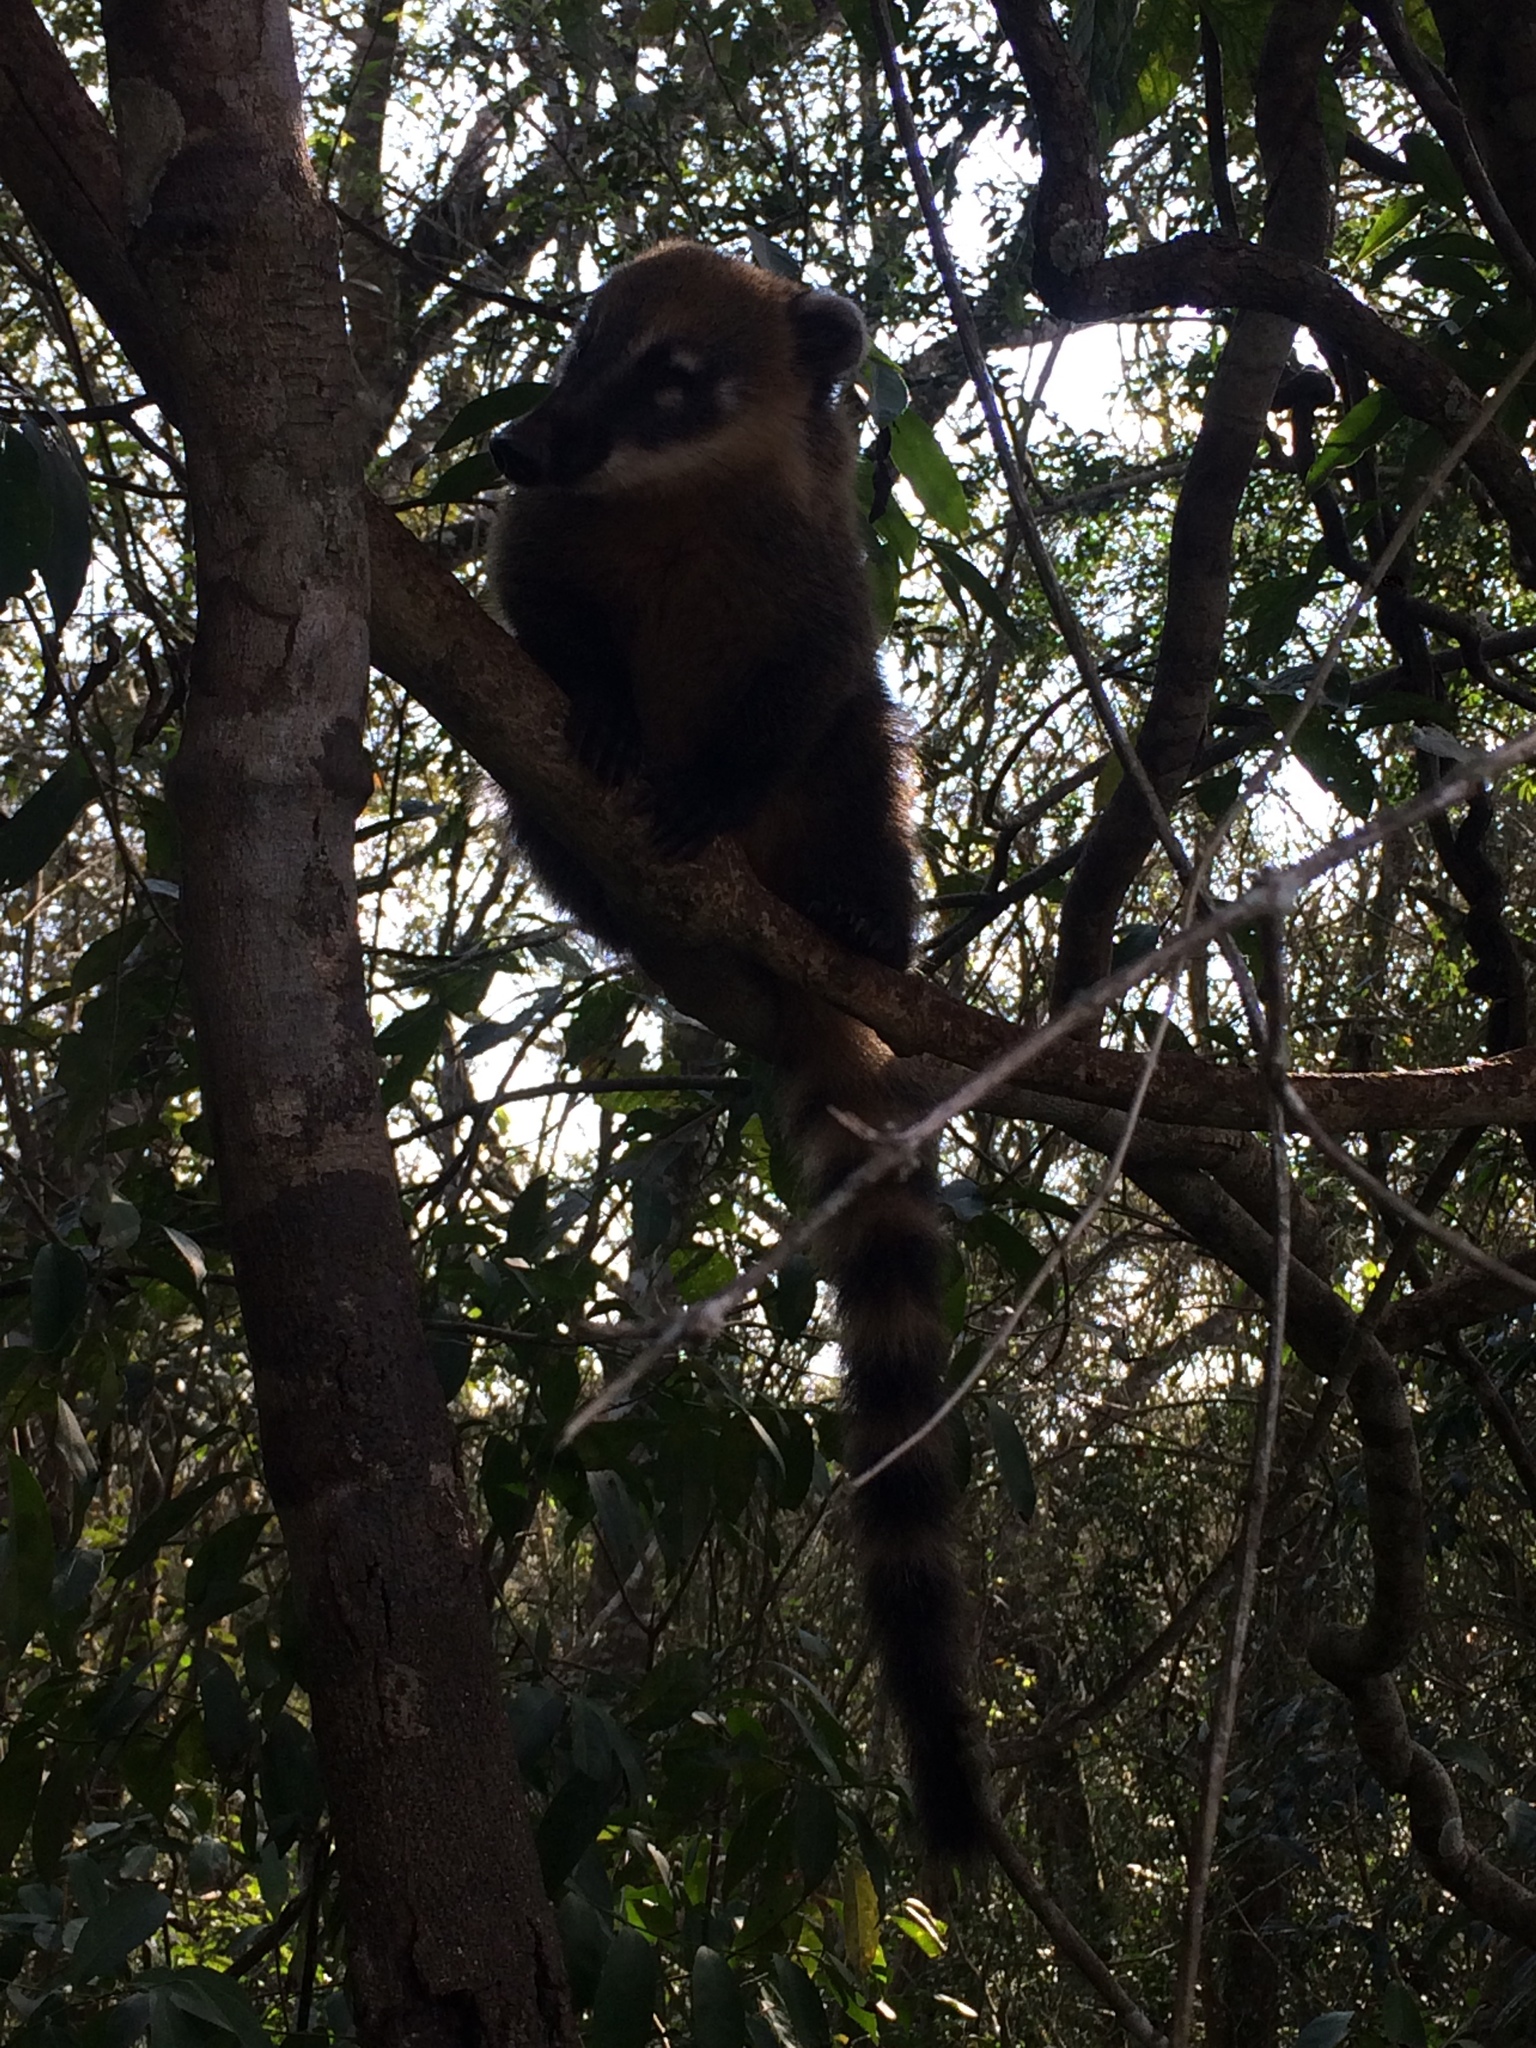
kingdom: Animalia
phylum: Chordata
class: Mammalia
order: Carnivora
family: Procyonidae
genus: Nasua
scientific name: Nasua nasua
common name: South american coati
